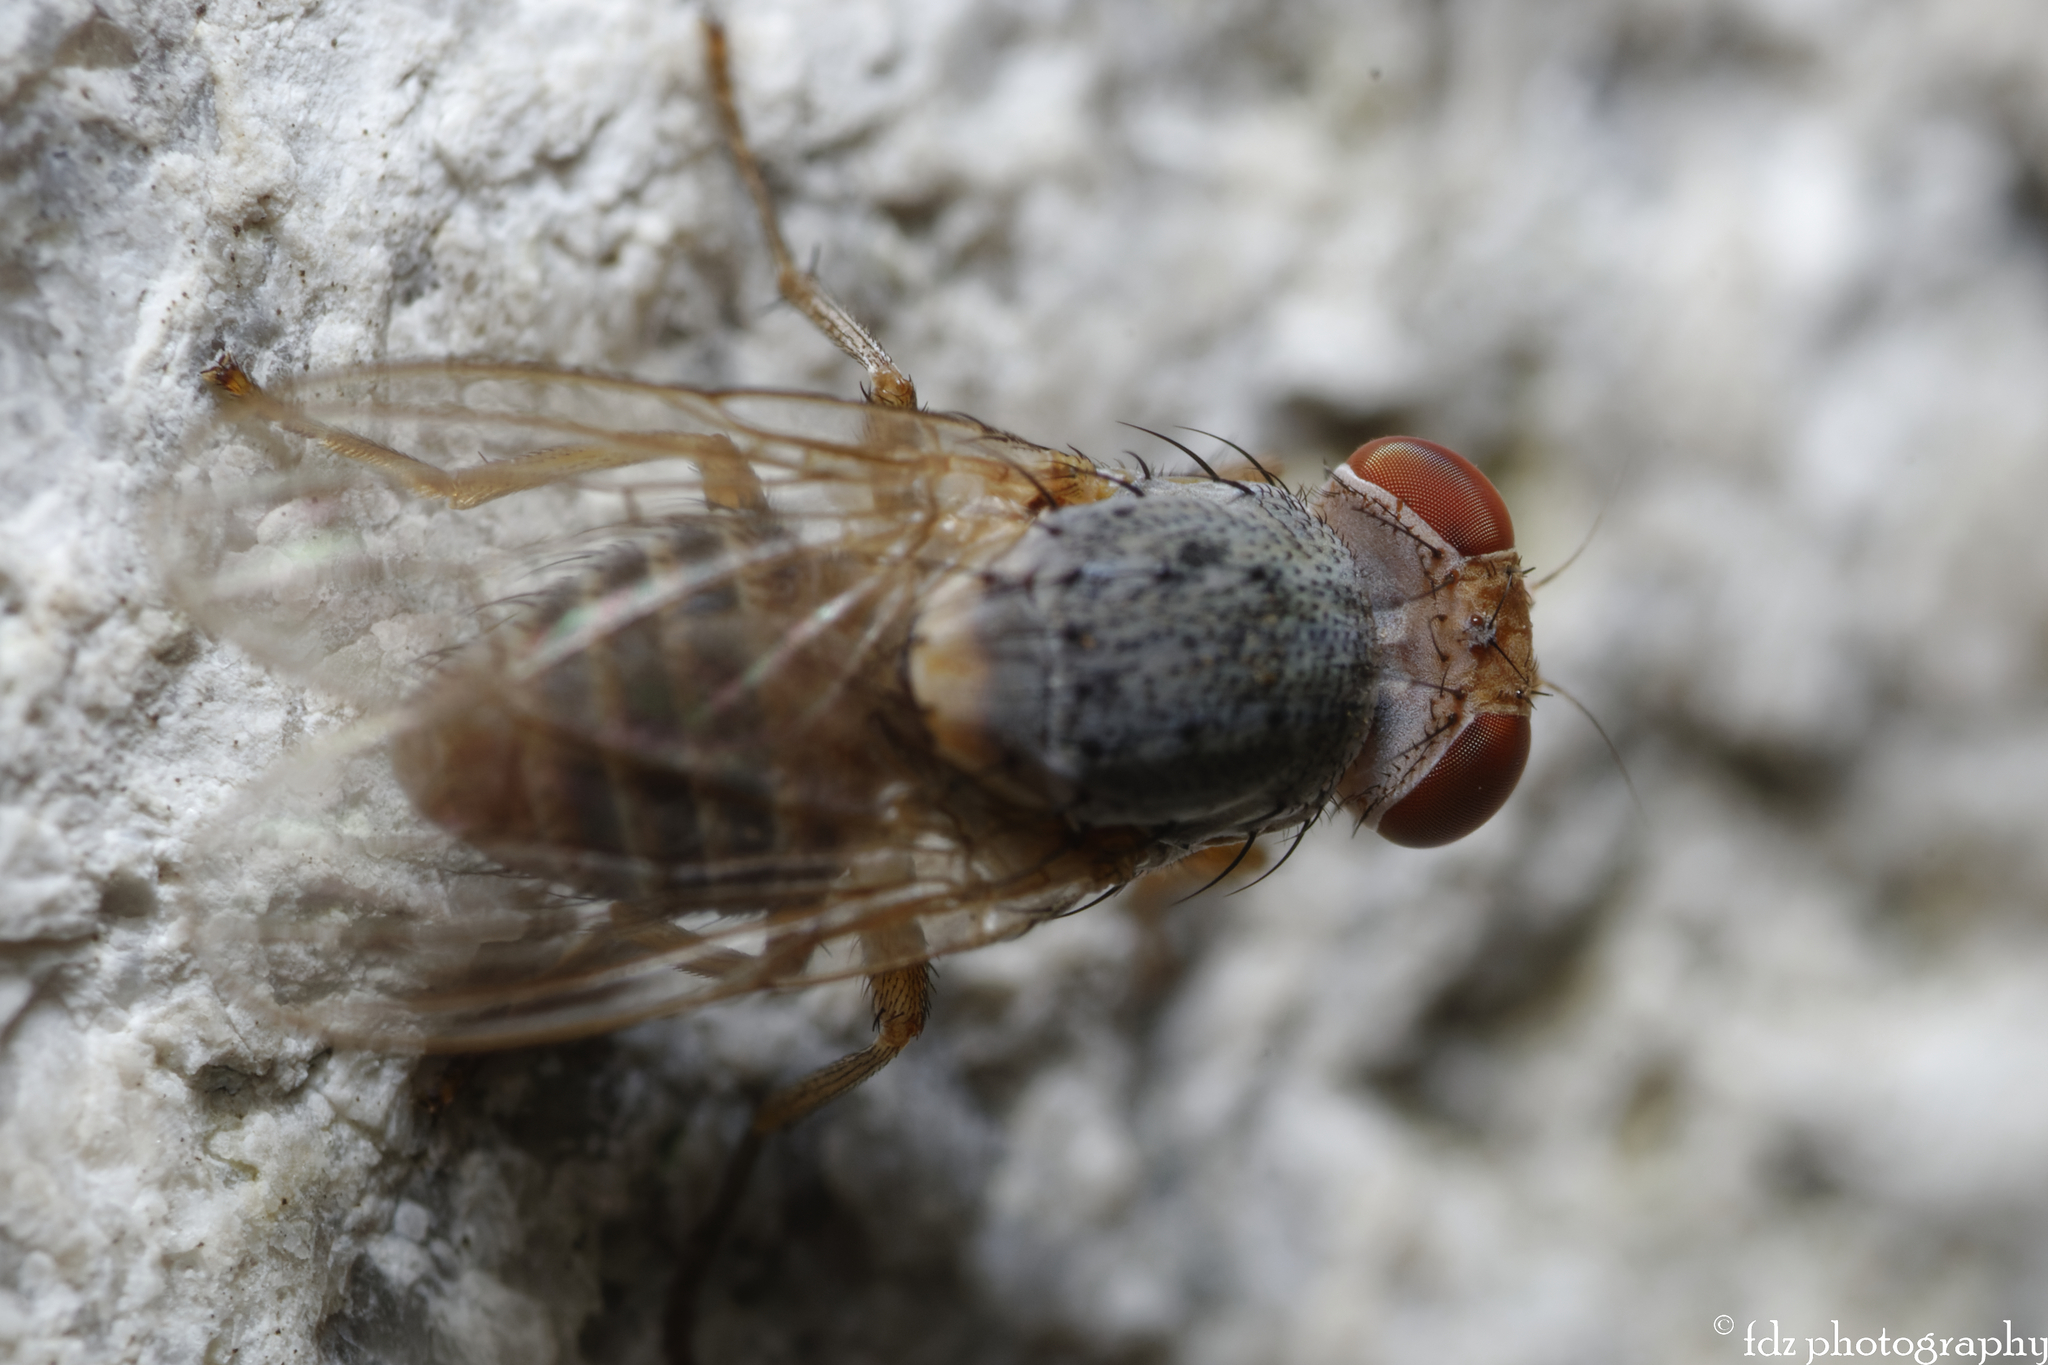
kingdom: Animalia
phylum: Arthropoda
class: Insecta
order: Diptera
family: Lauxaniidae
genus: Prosopomyia
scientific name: Prosopomyia pallida
